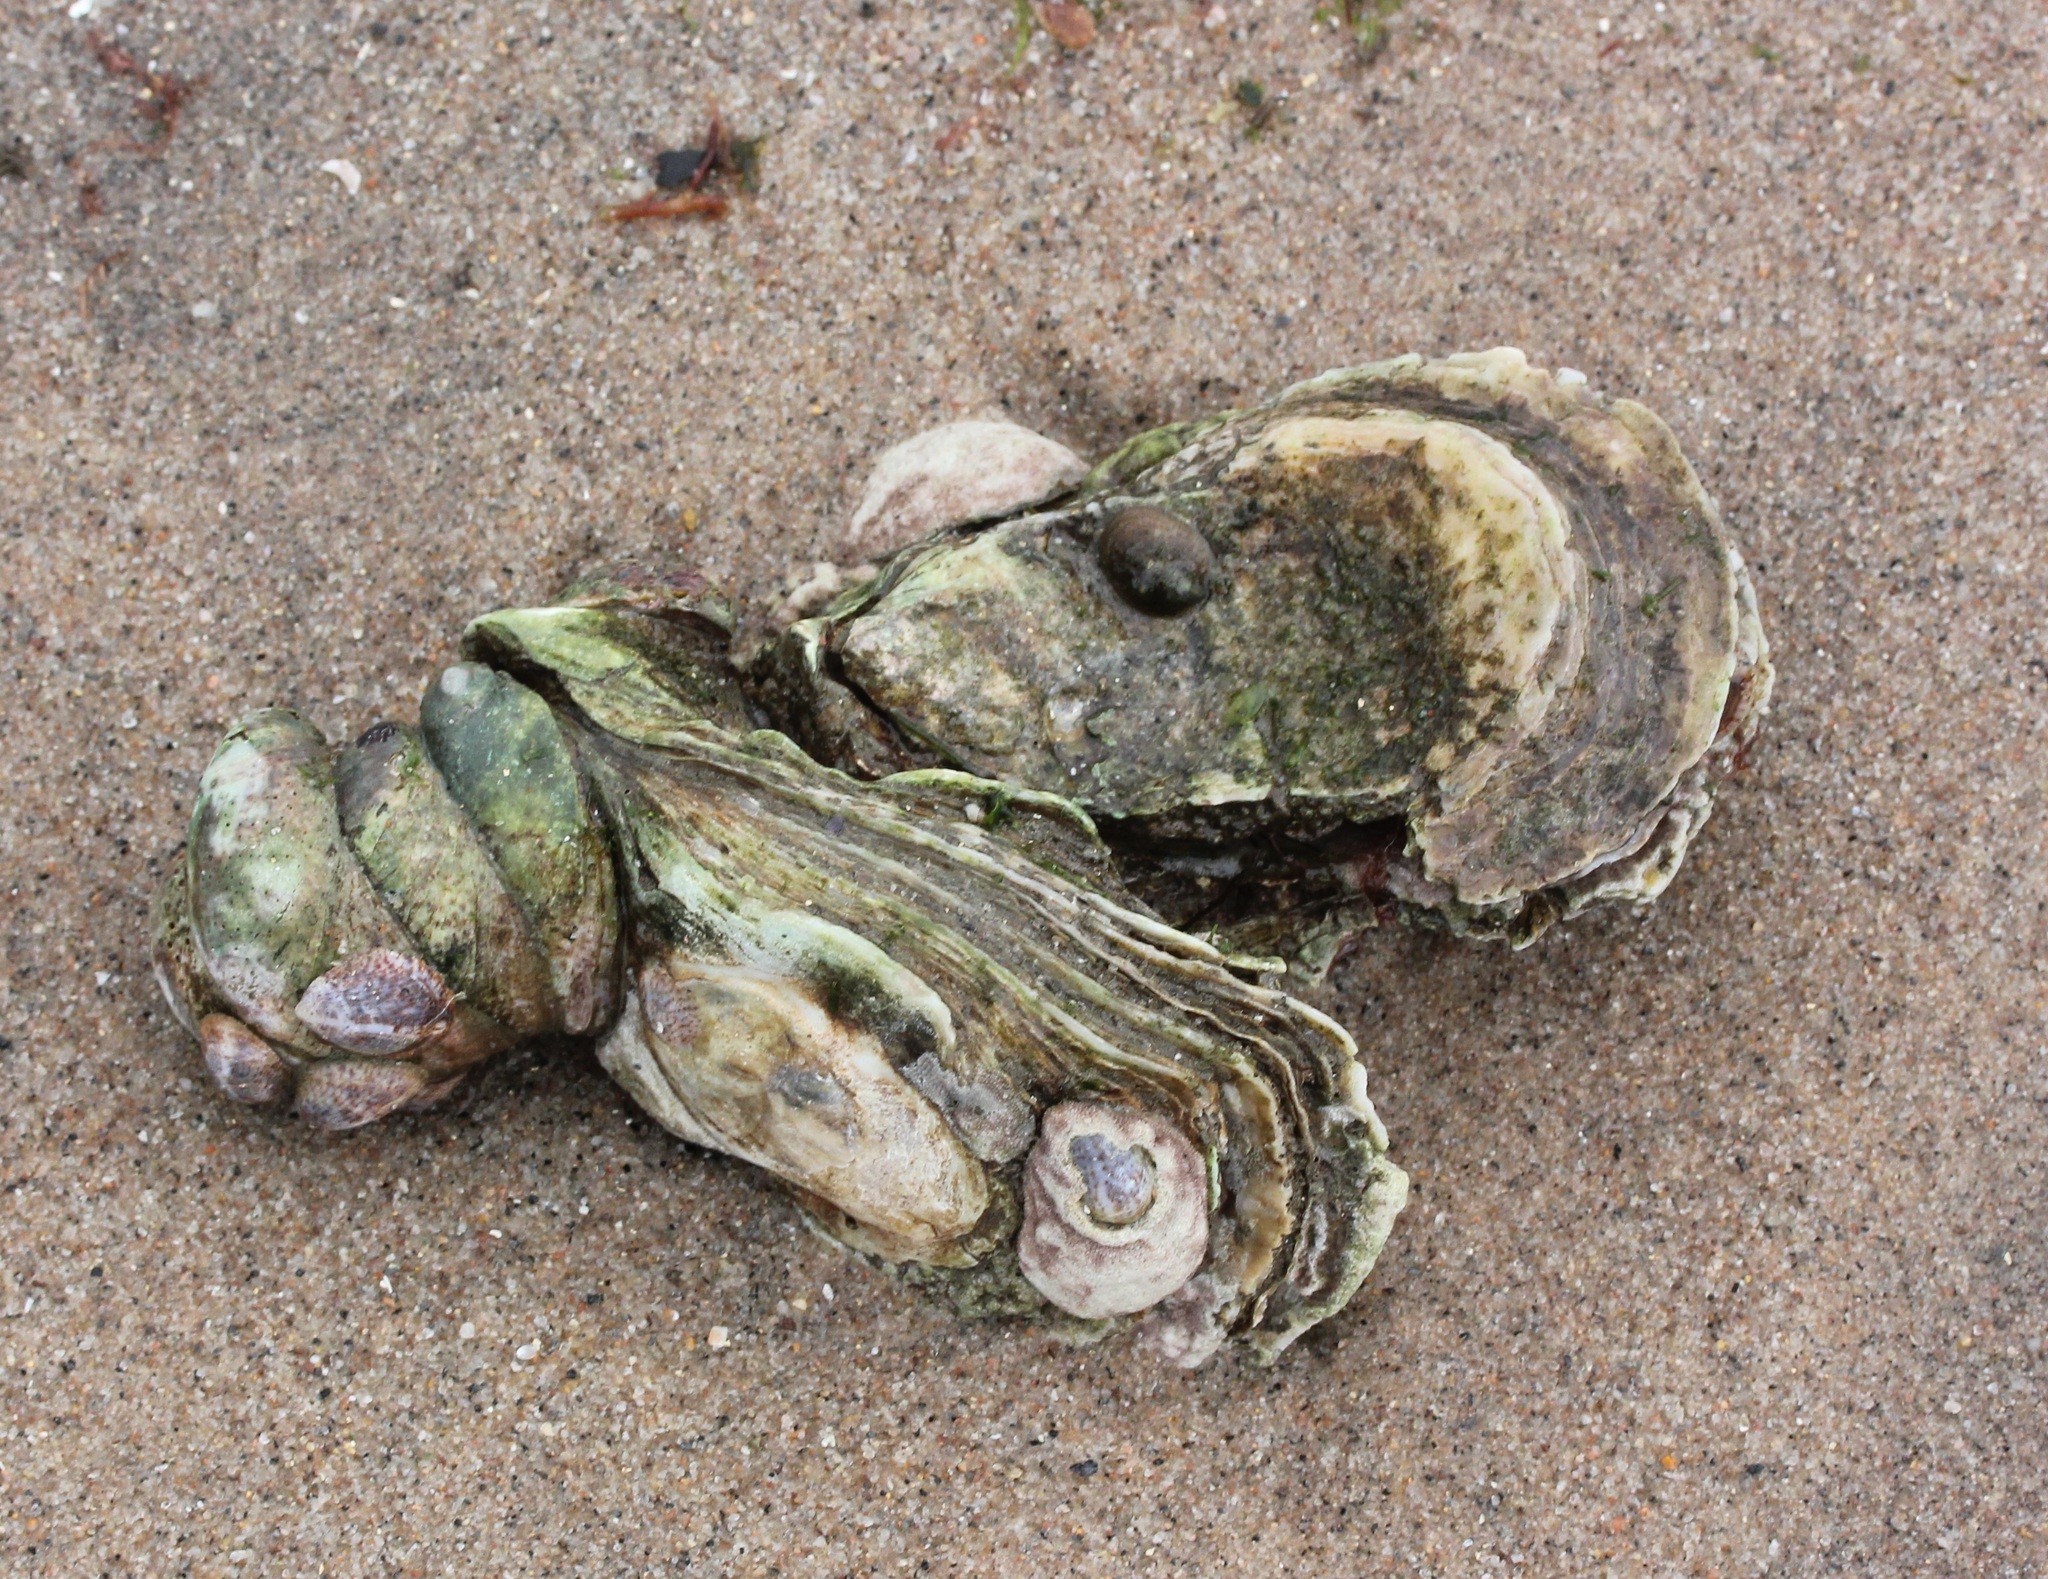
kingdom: Animalia
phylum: Mollusca
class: Bivalvia
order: Ostreida
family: Ostreidae
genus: Crassostrea
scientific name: Crassostrea virginica
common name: American oyster
